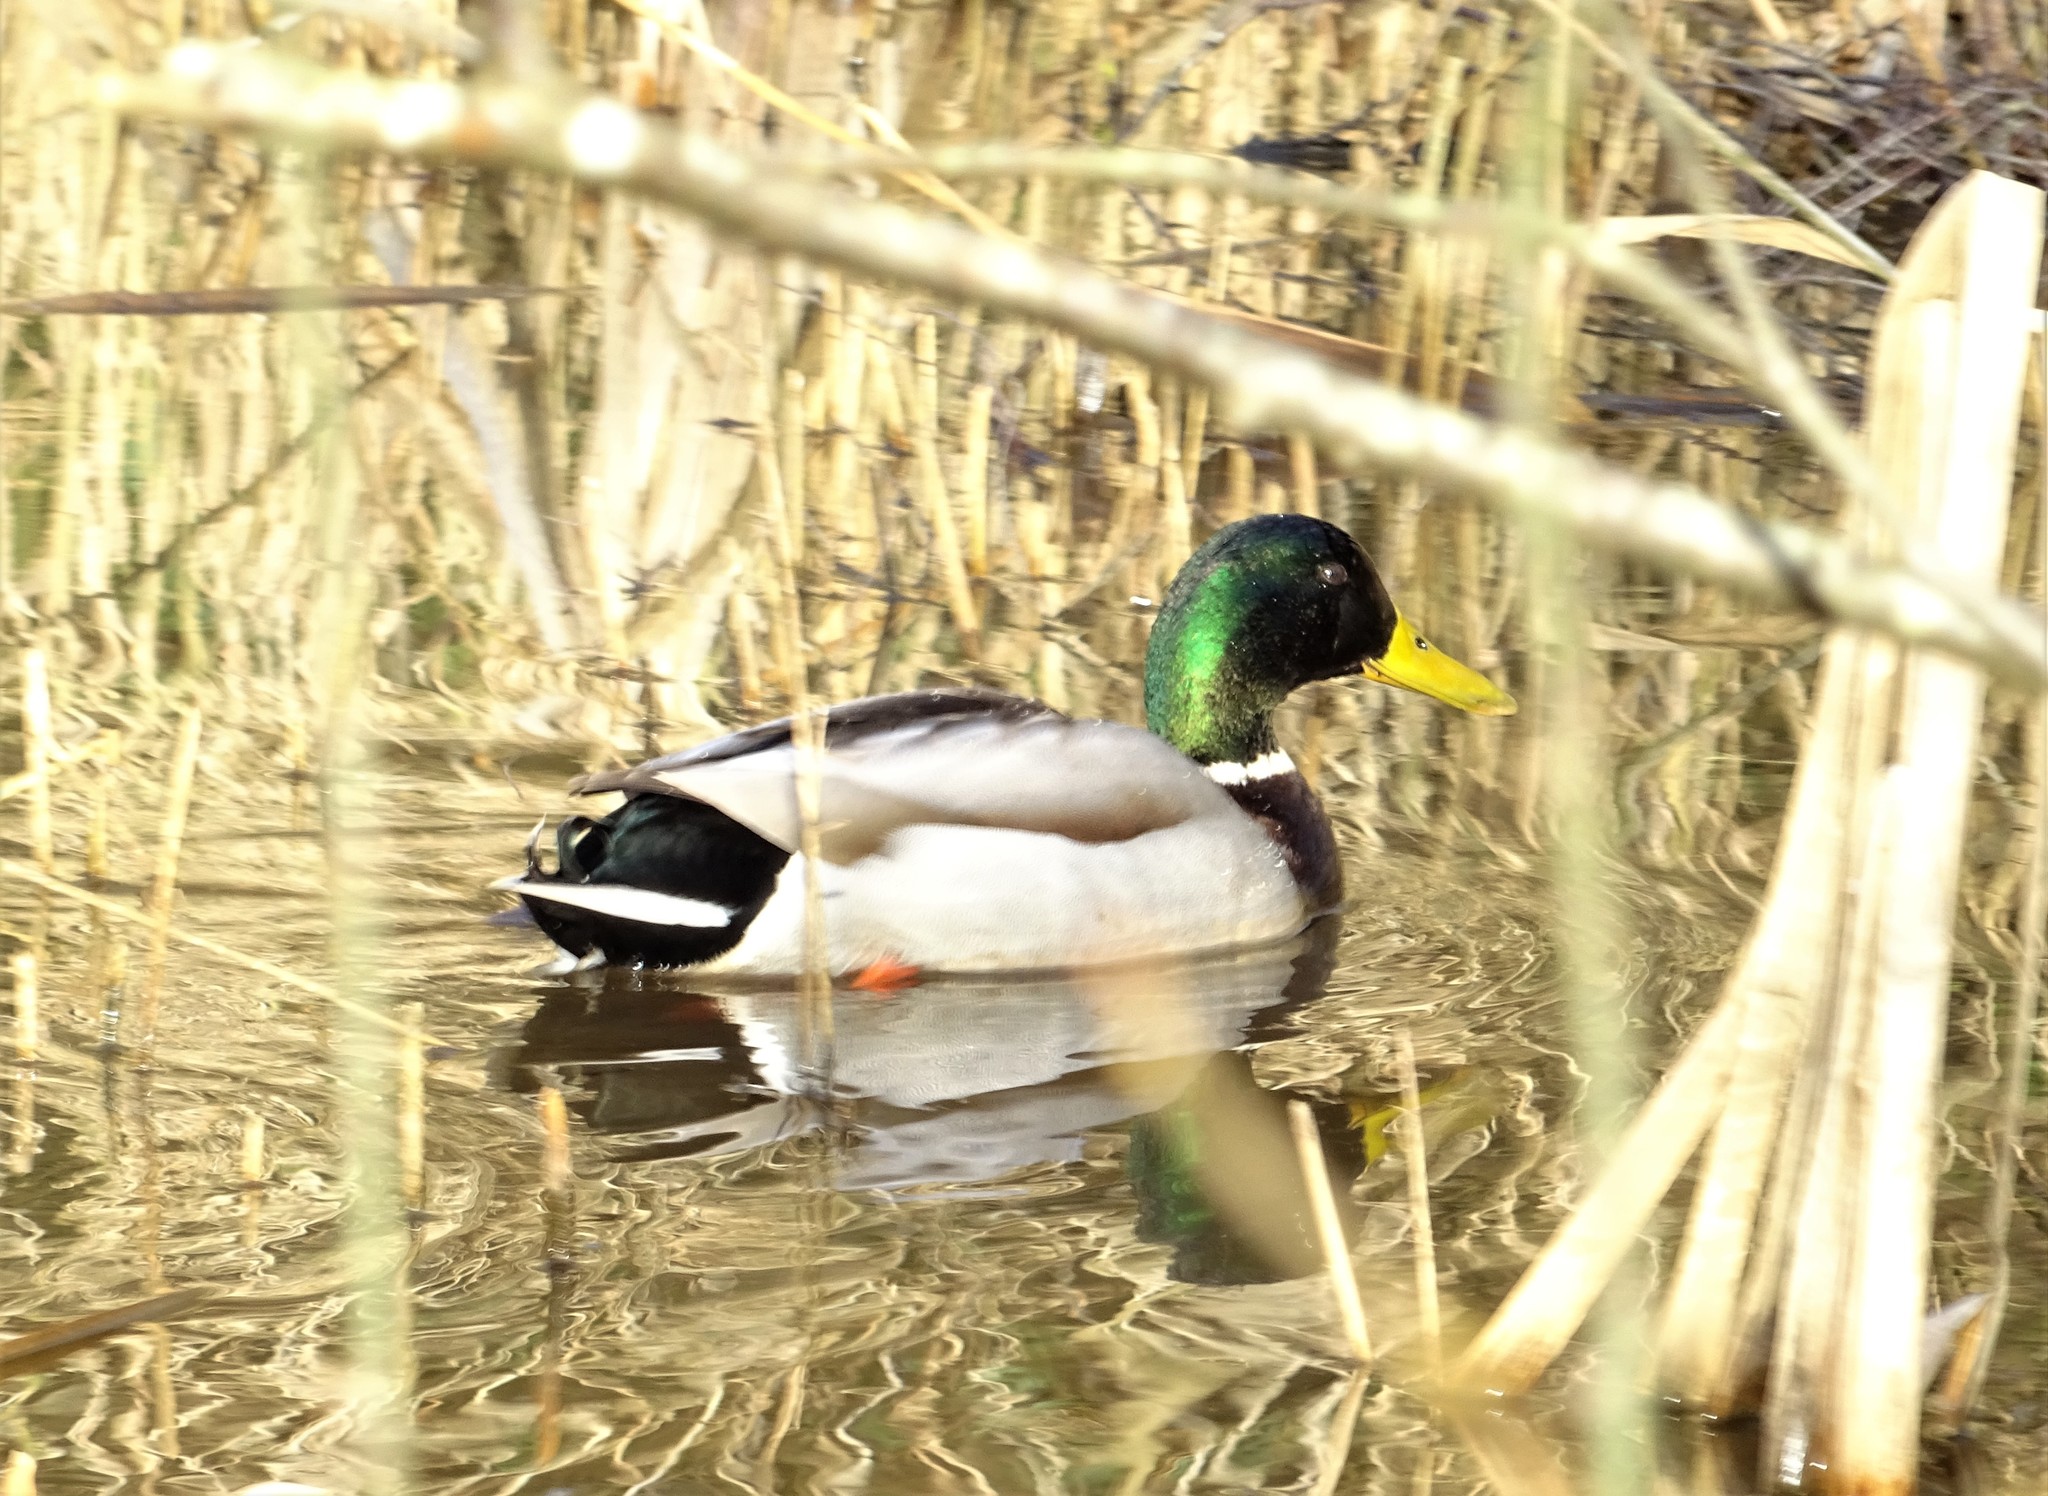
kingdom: Animalia
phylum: Chordata
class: Aves
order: Anseriformes
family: Anatidae
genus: Anas
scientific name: Anas platyrhynchos
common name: Mallard
